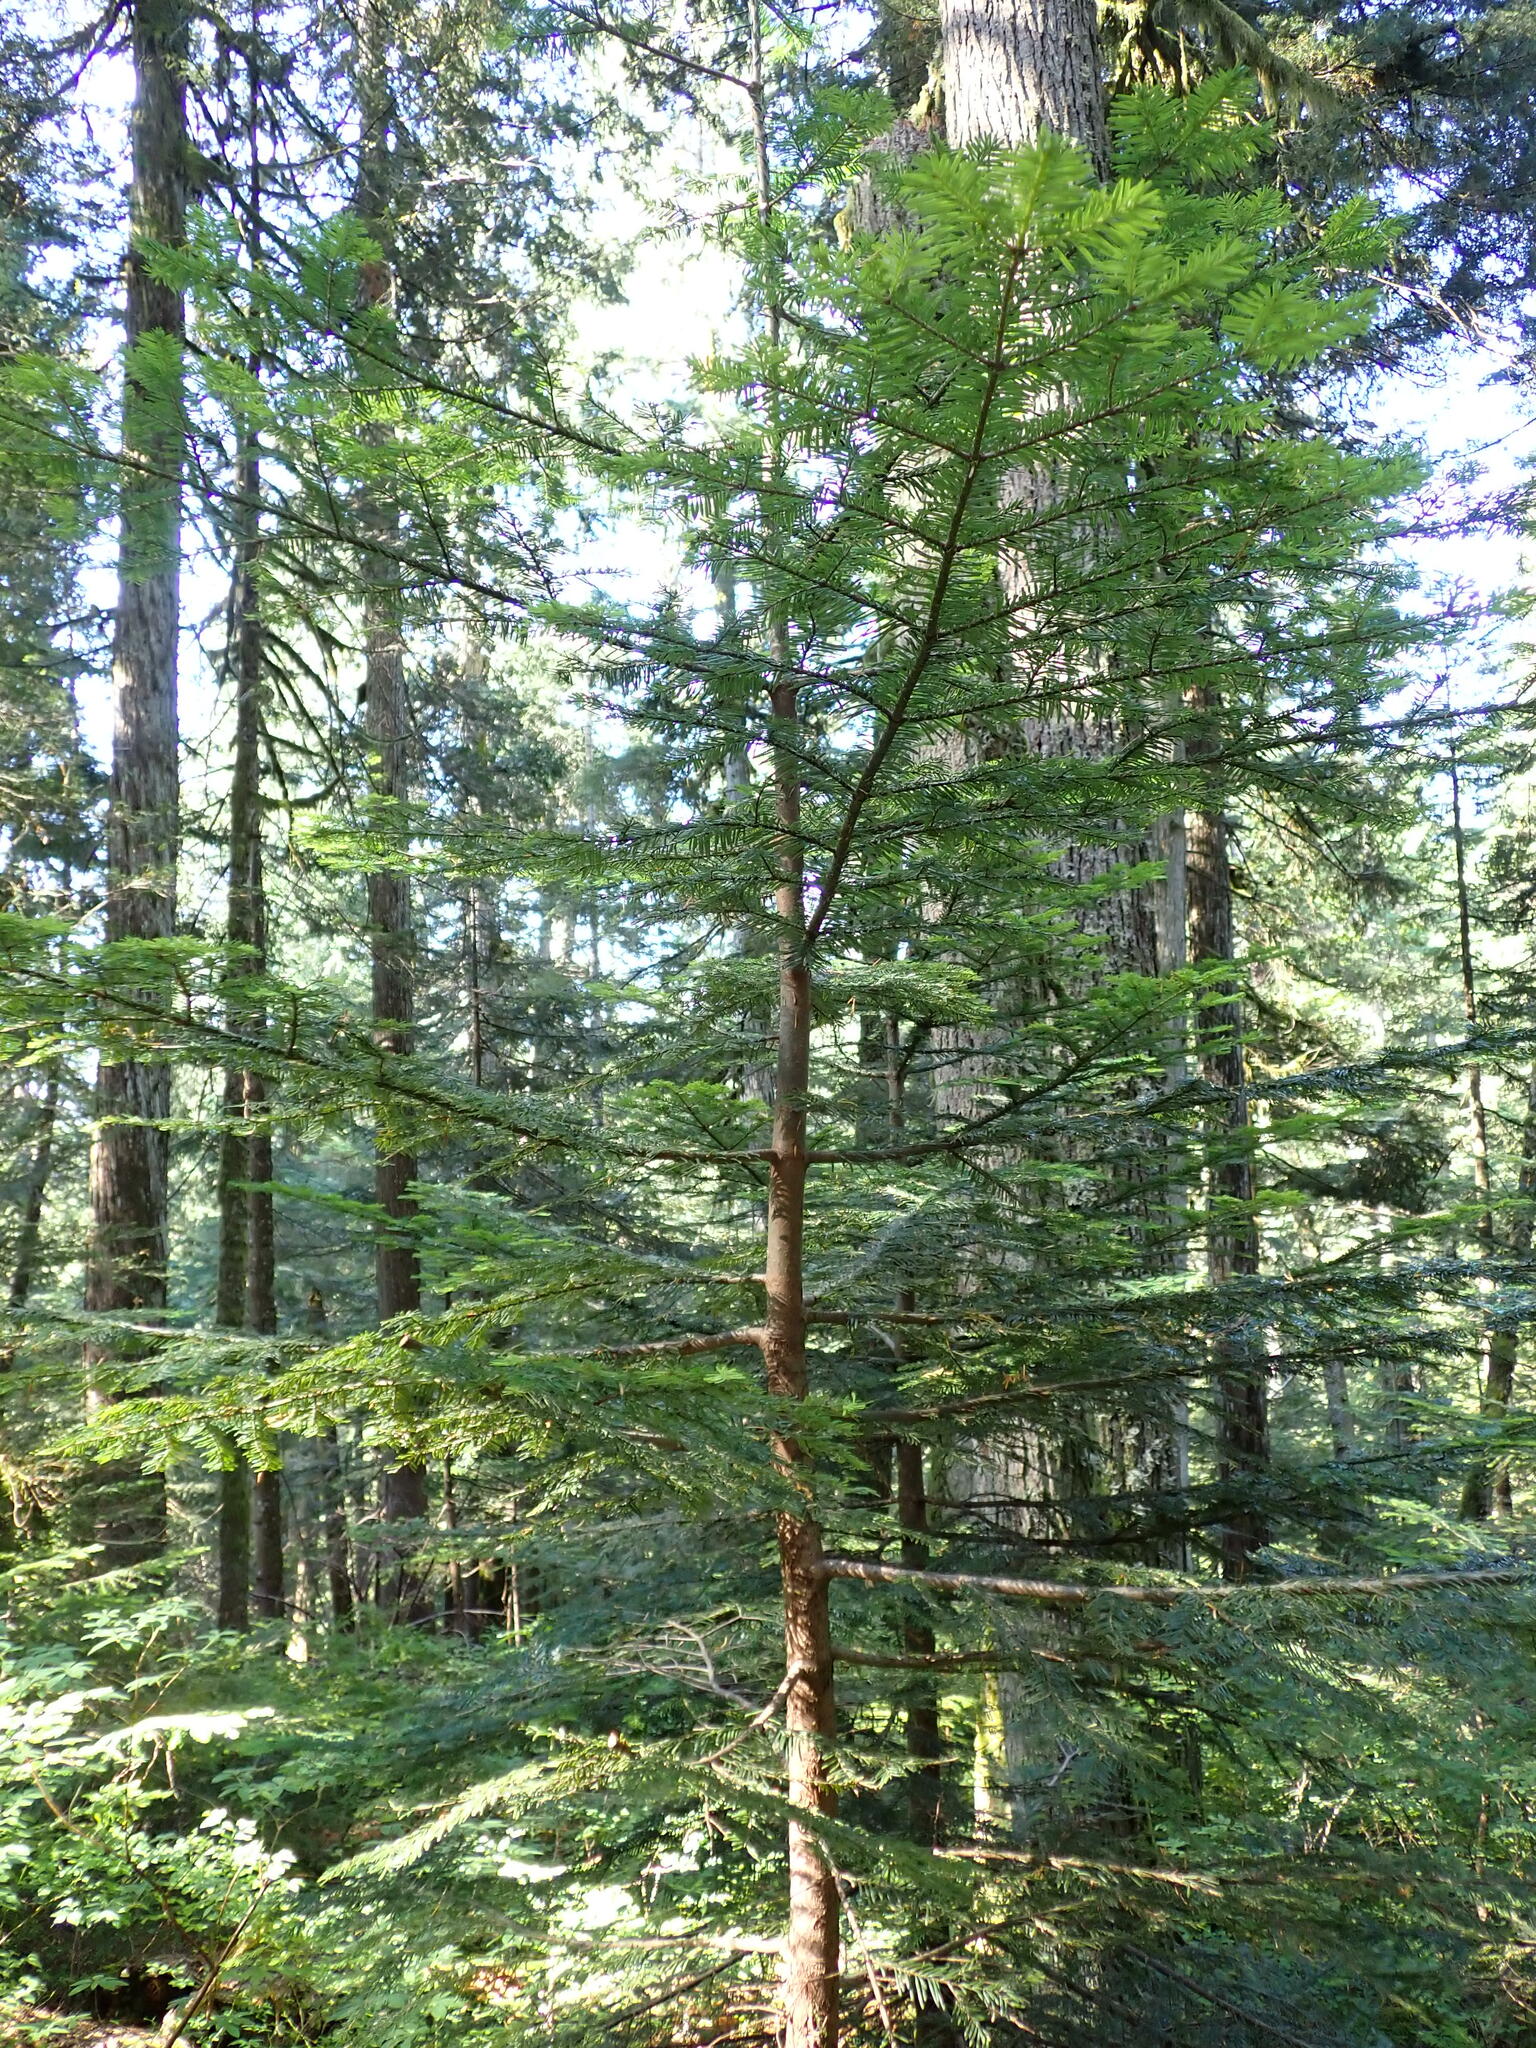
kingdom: Plantae
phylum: Tracheophyta
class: Pinopsida
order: Pinales
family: Pinaceae
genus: Abies
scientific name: Abies amabilis
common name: Pacific silver fir
